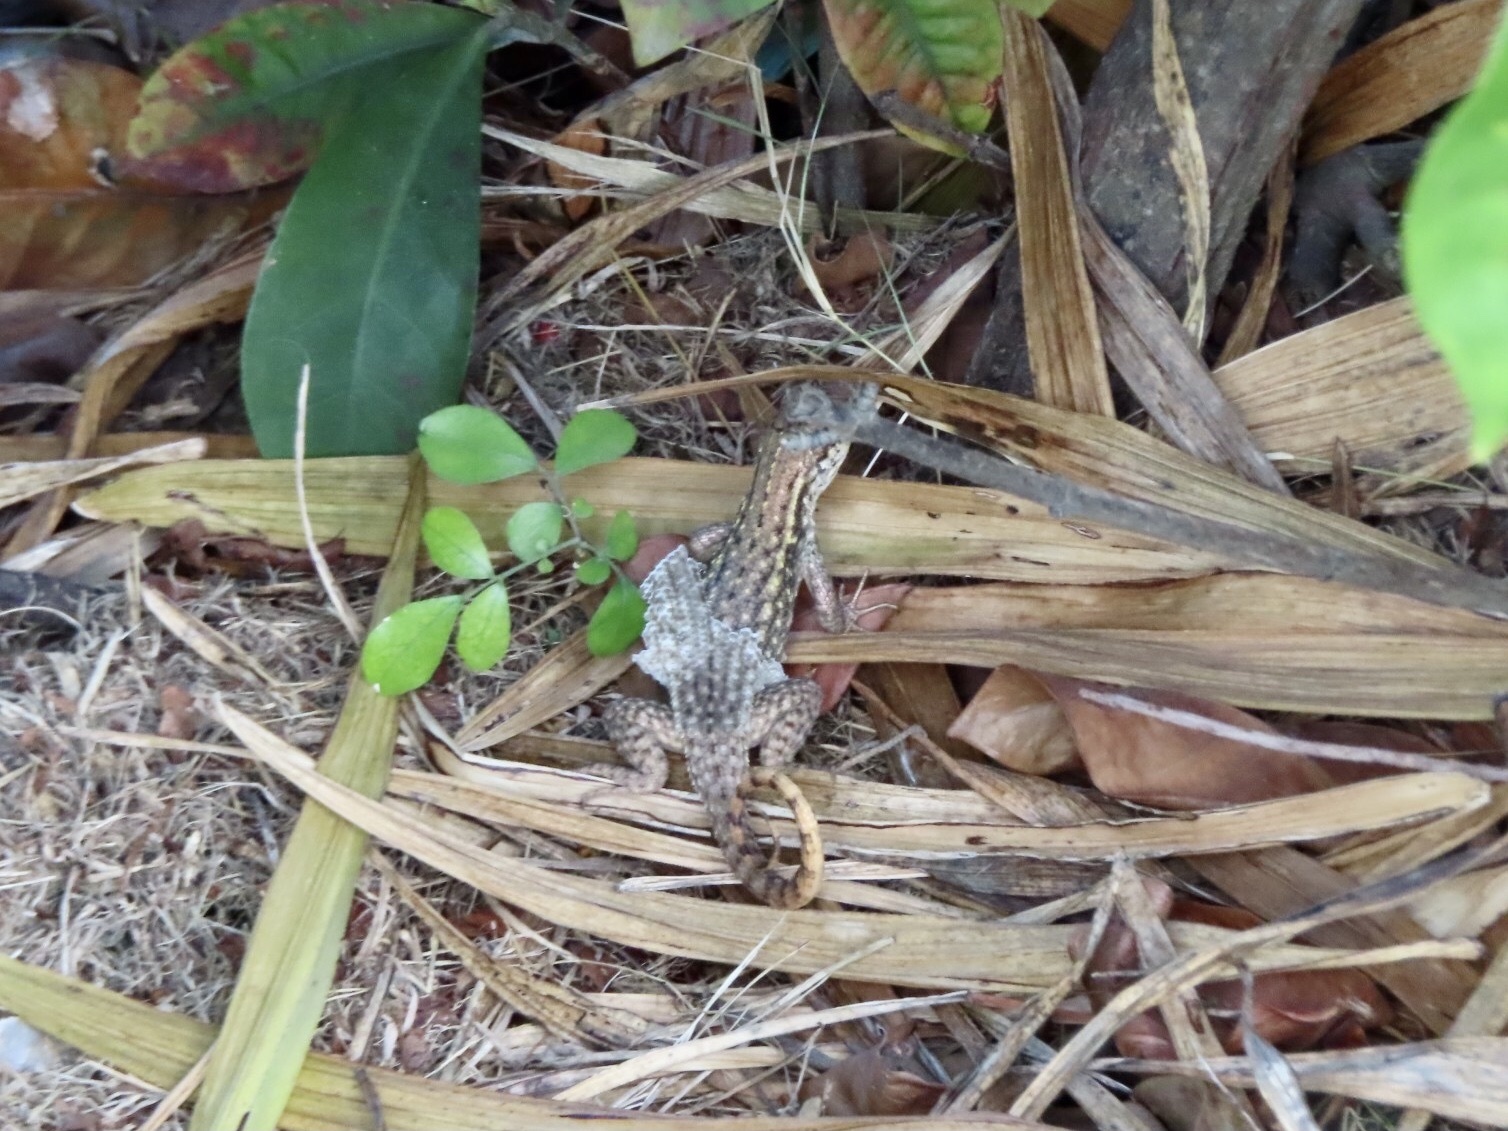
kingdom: Animalia
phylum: Chordata
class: Squamata
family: Leiocephalidae
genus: Leiocephalus
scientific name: Leiocephalus carinatus
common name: Northern curly-tailed lizard
